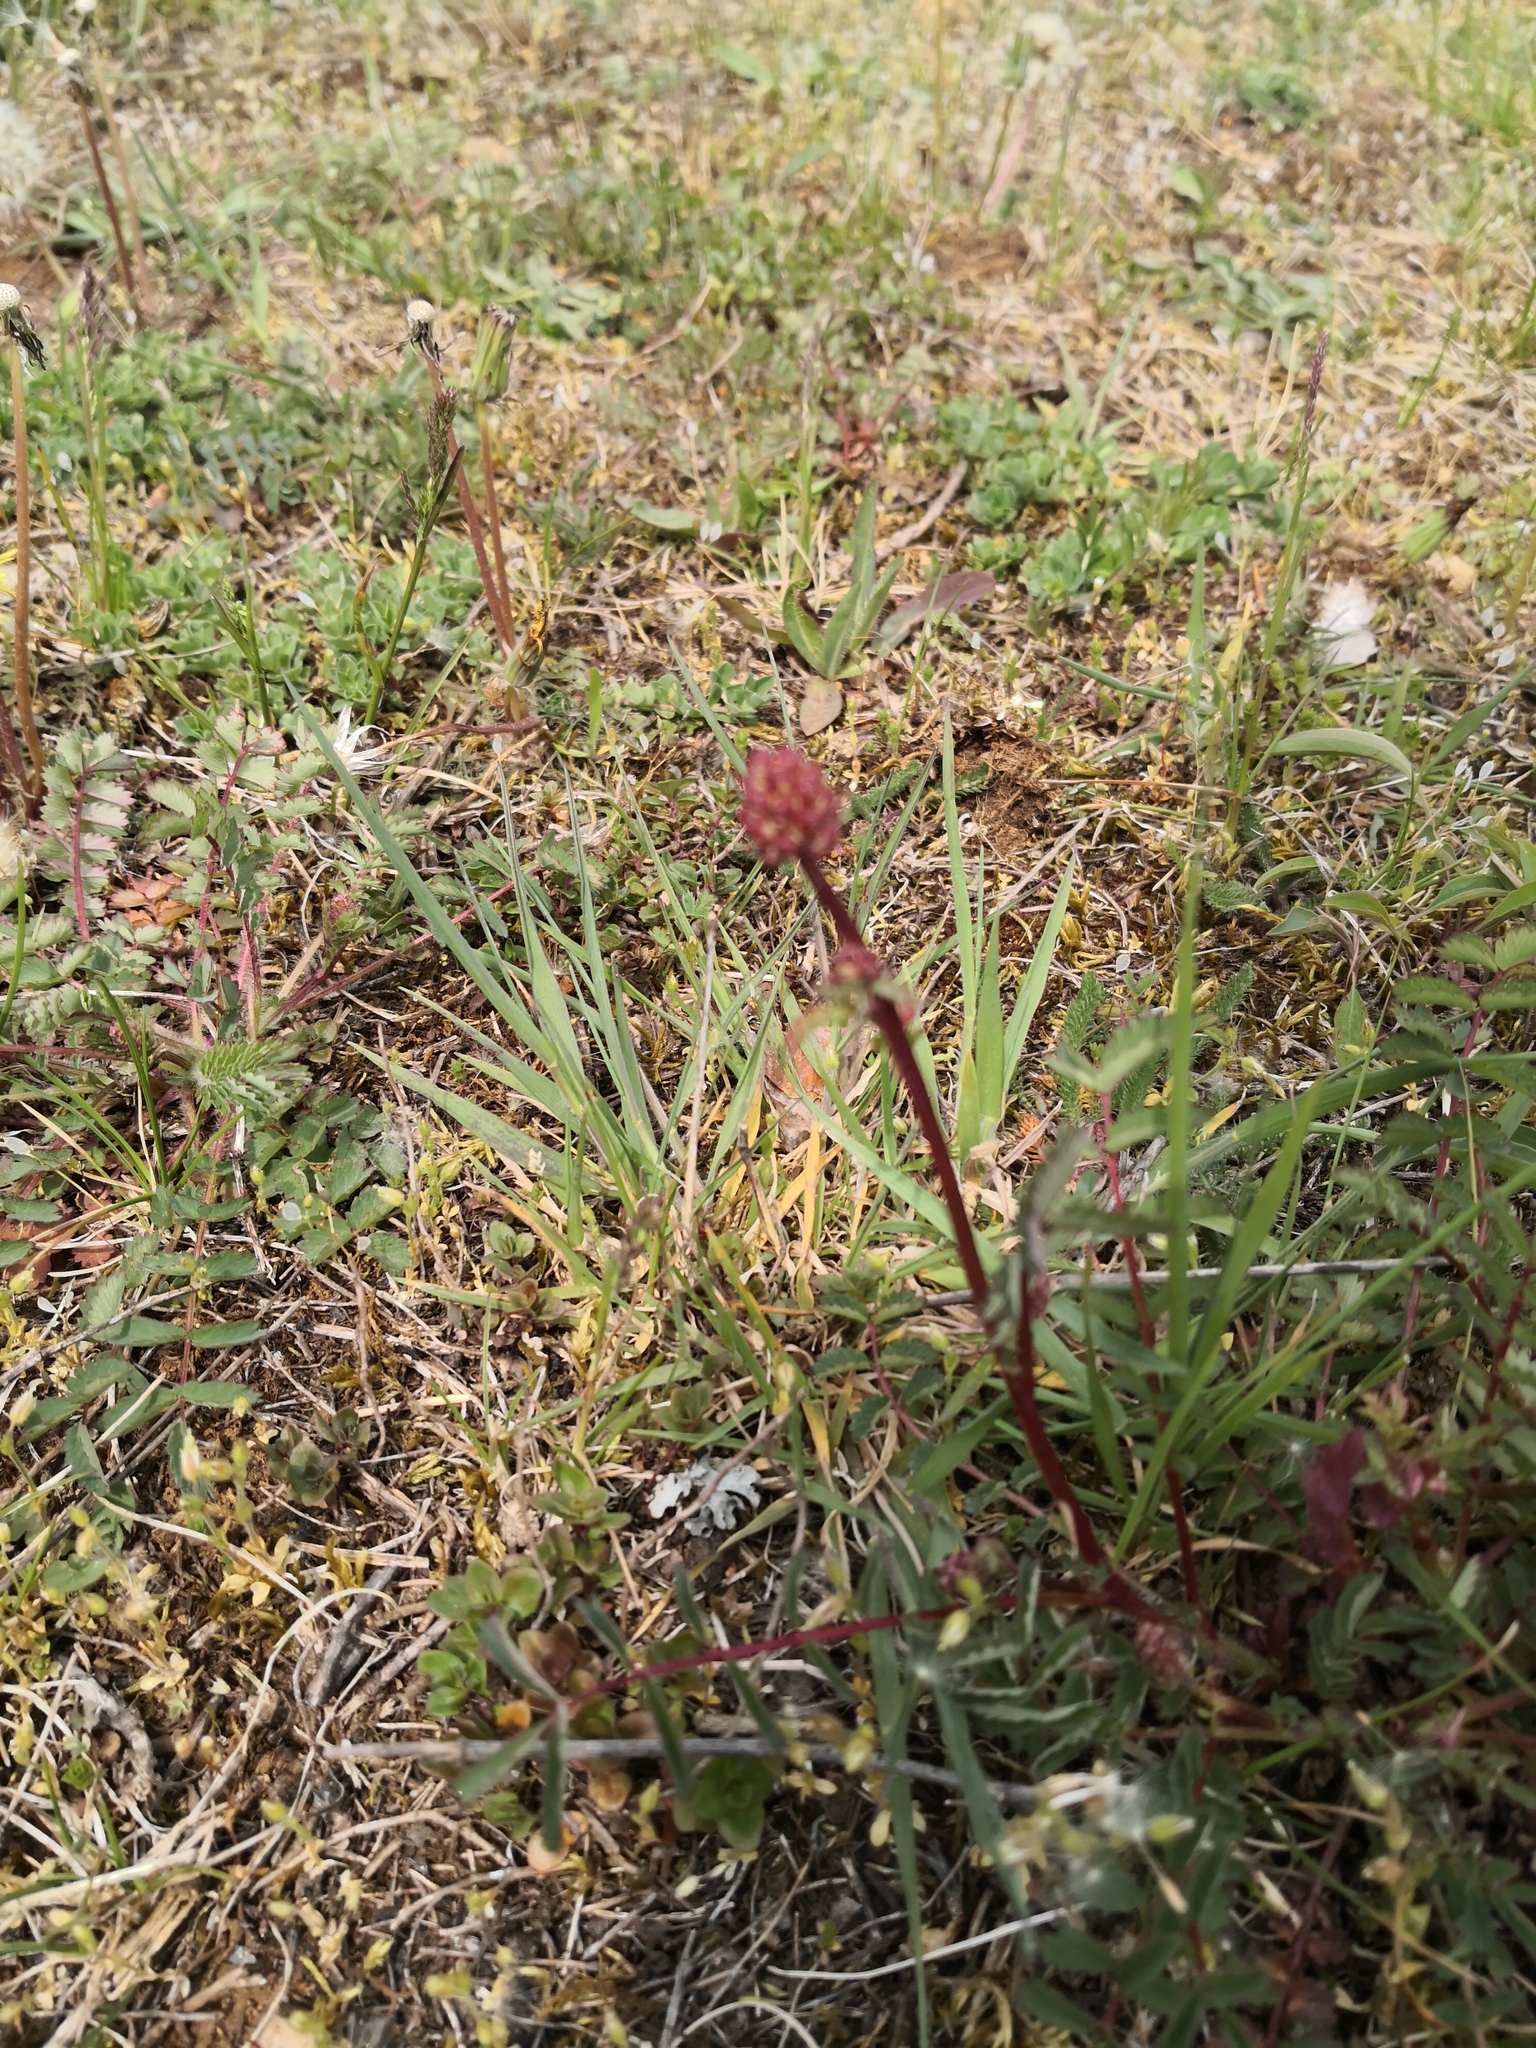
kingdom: Plantae
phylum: Tracheophyta
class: Magnoliopsida
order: Rosales
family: Rosaceae
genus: Poterium
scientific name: Poterium sanguisorba
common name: Salad burnet
